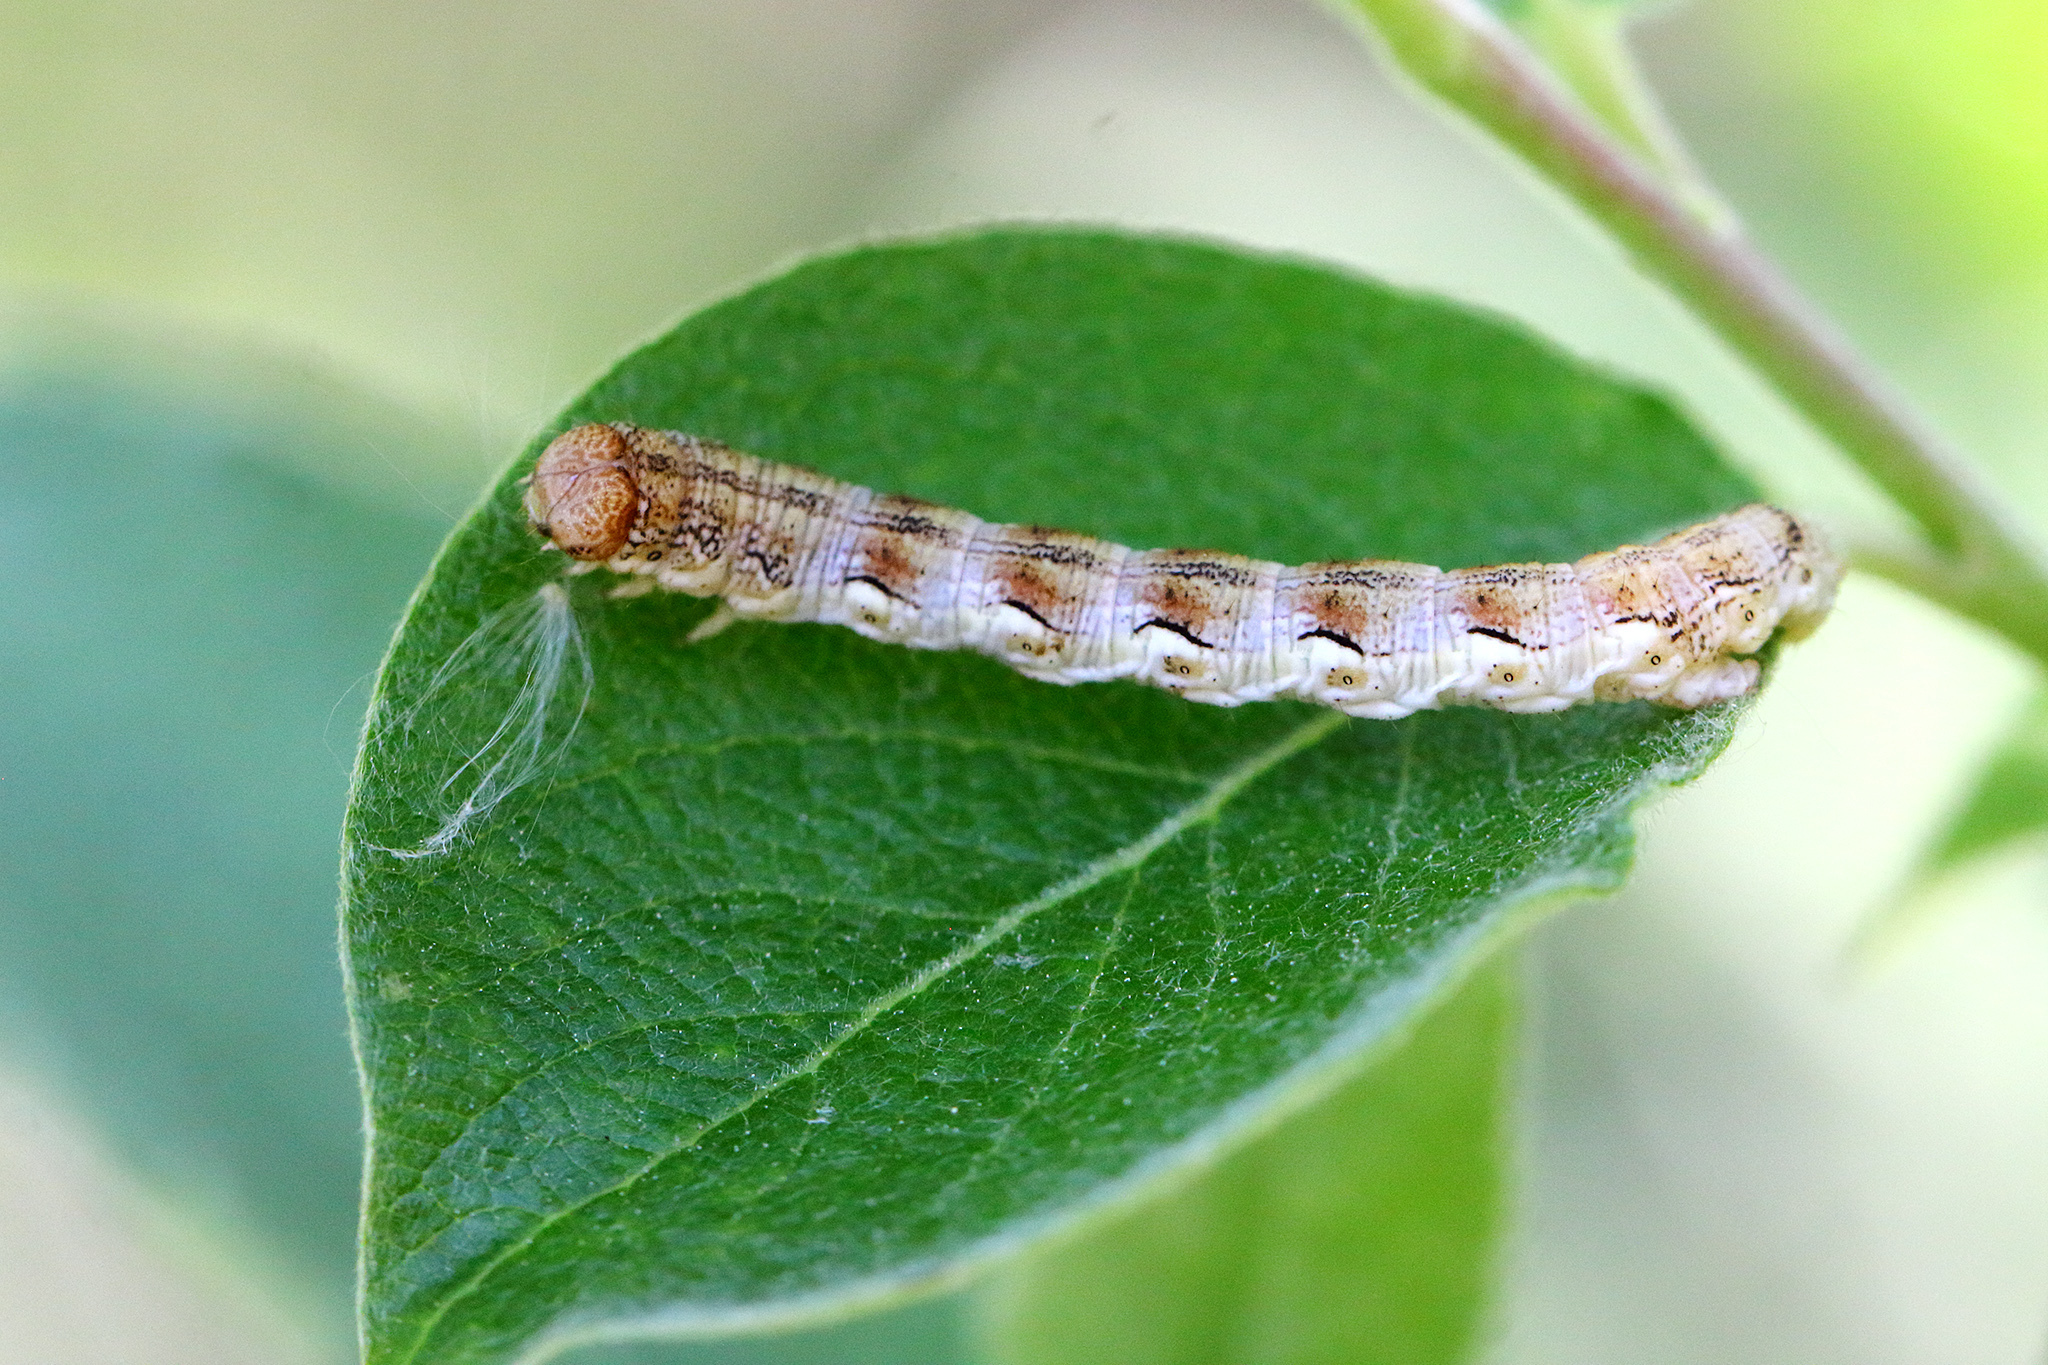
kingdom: Animalia
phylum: Arthropoda
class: Insecta
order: Lepidoptera
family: Geometridae
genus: Erannis
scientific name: Erannis defoliaria
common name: Mottled umber
